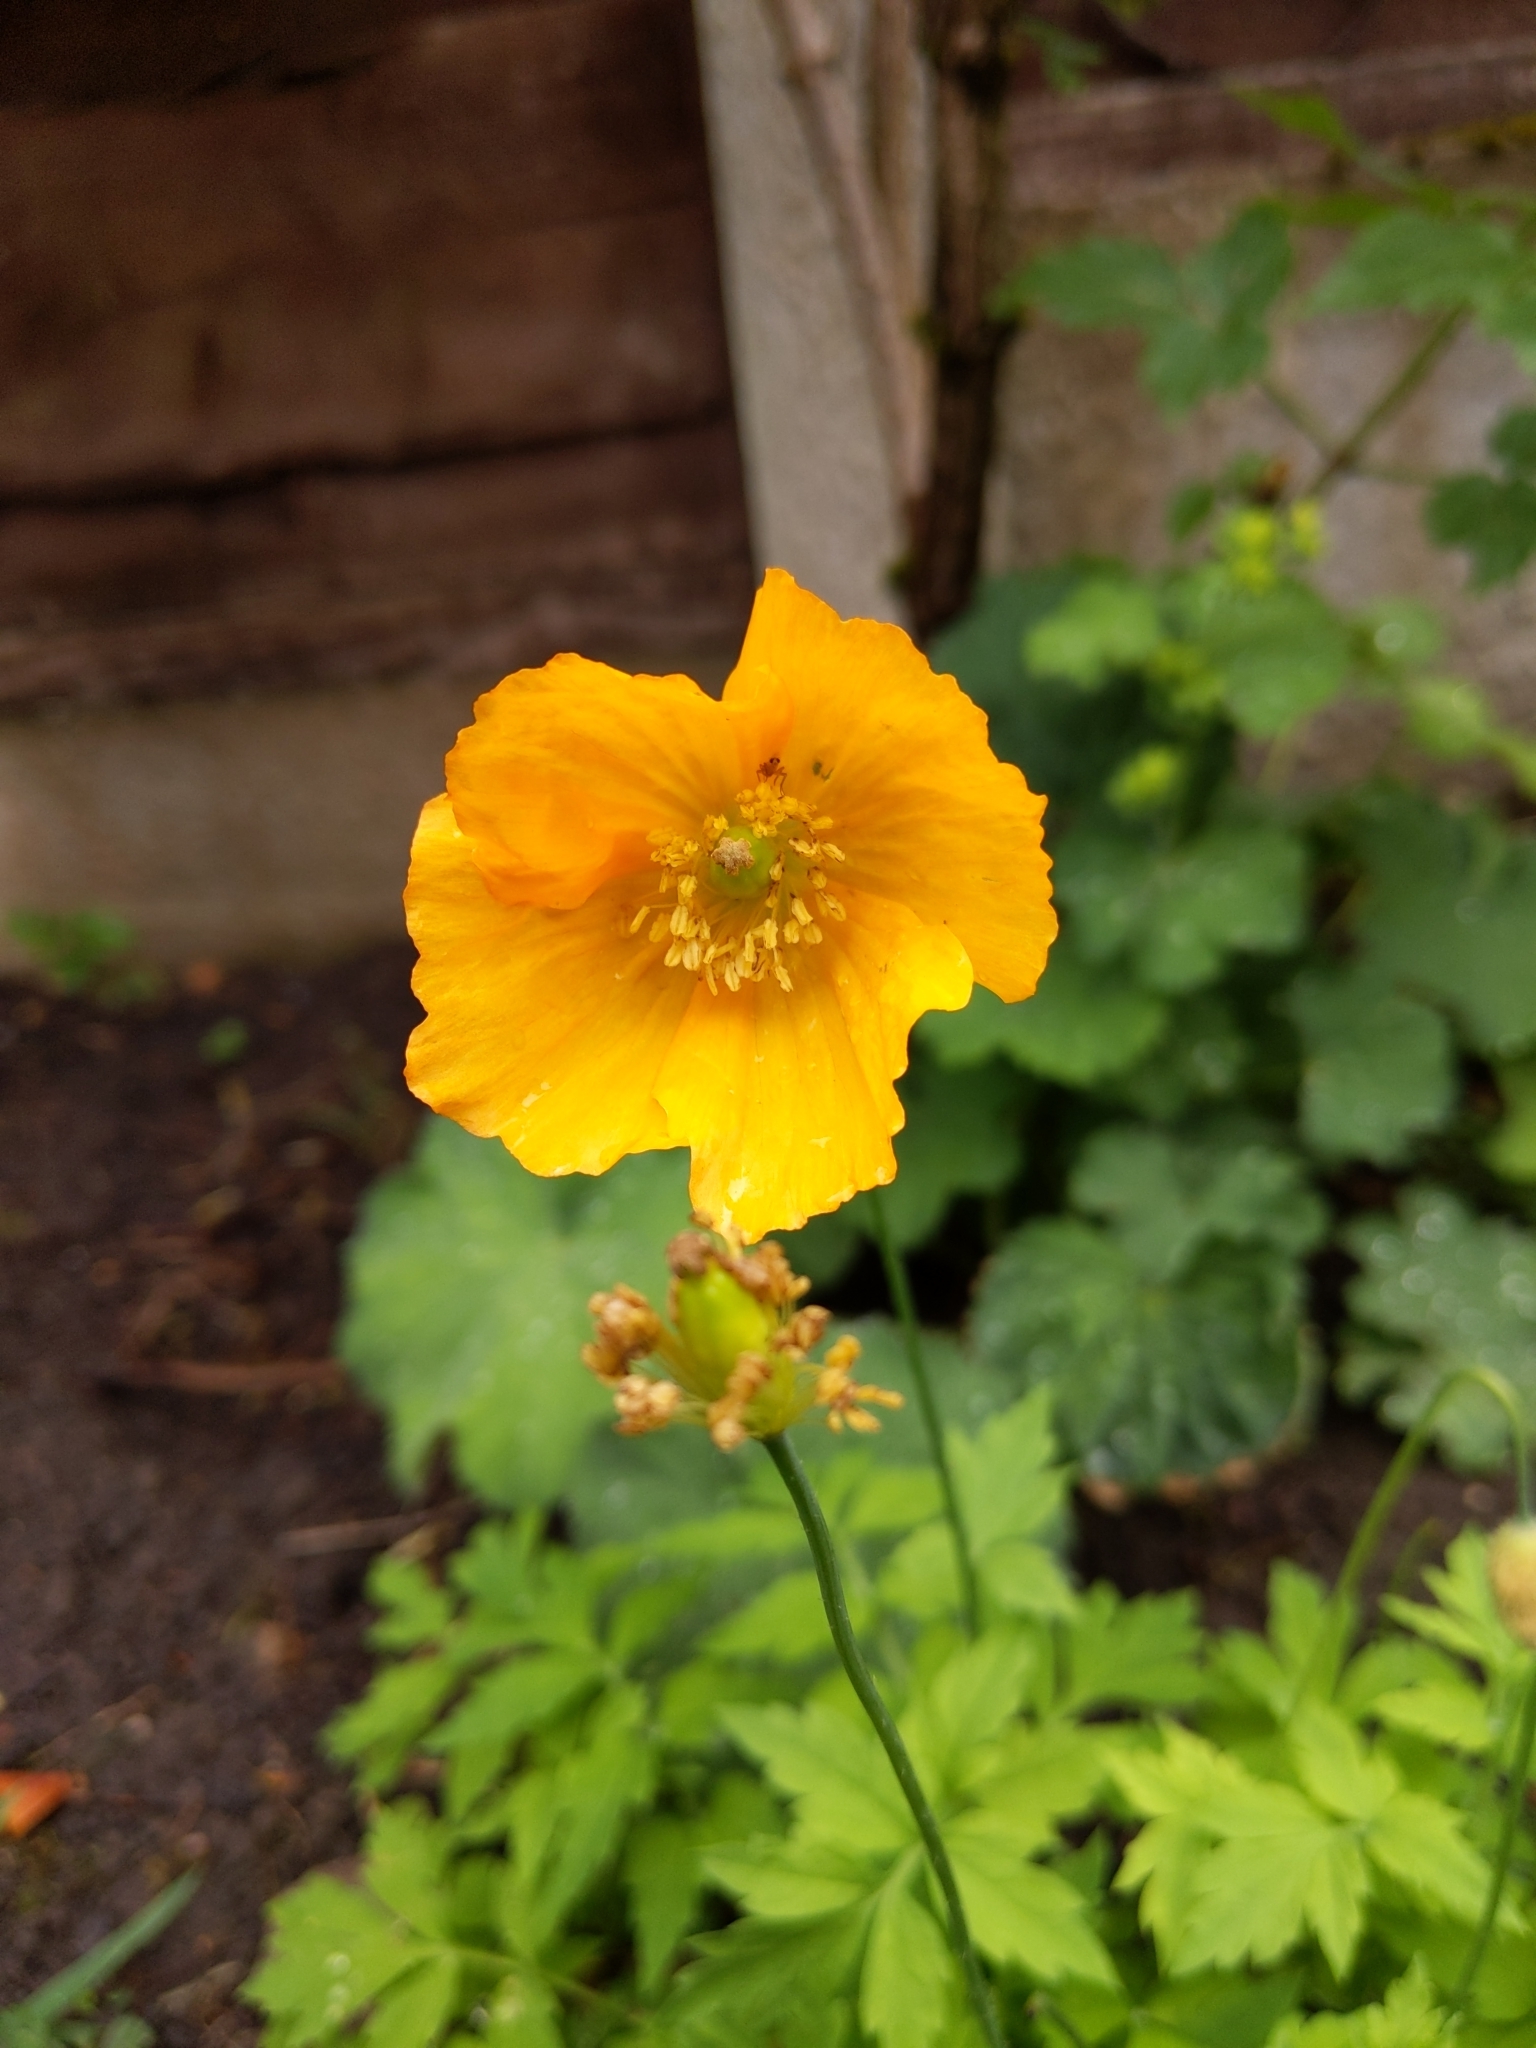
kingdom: Plantae
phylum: Tracheophyta
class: Magnoliopsida
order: Ranunculales
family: Papaveraceae
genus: Papaver
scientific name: Papaver cambricum
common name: Poppy
